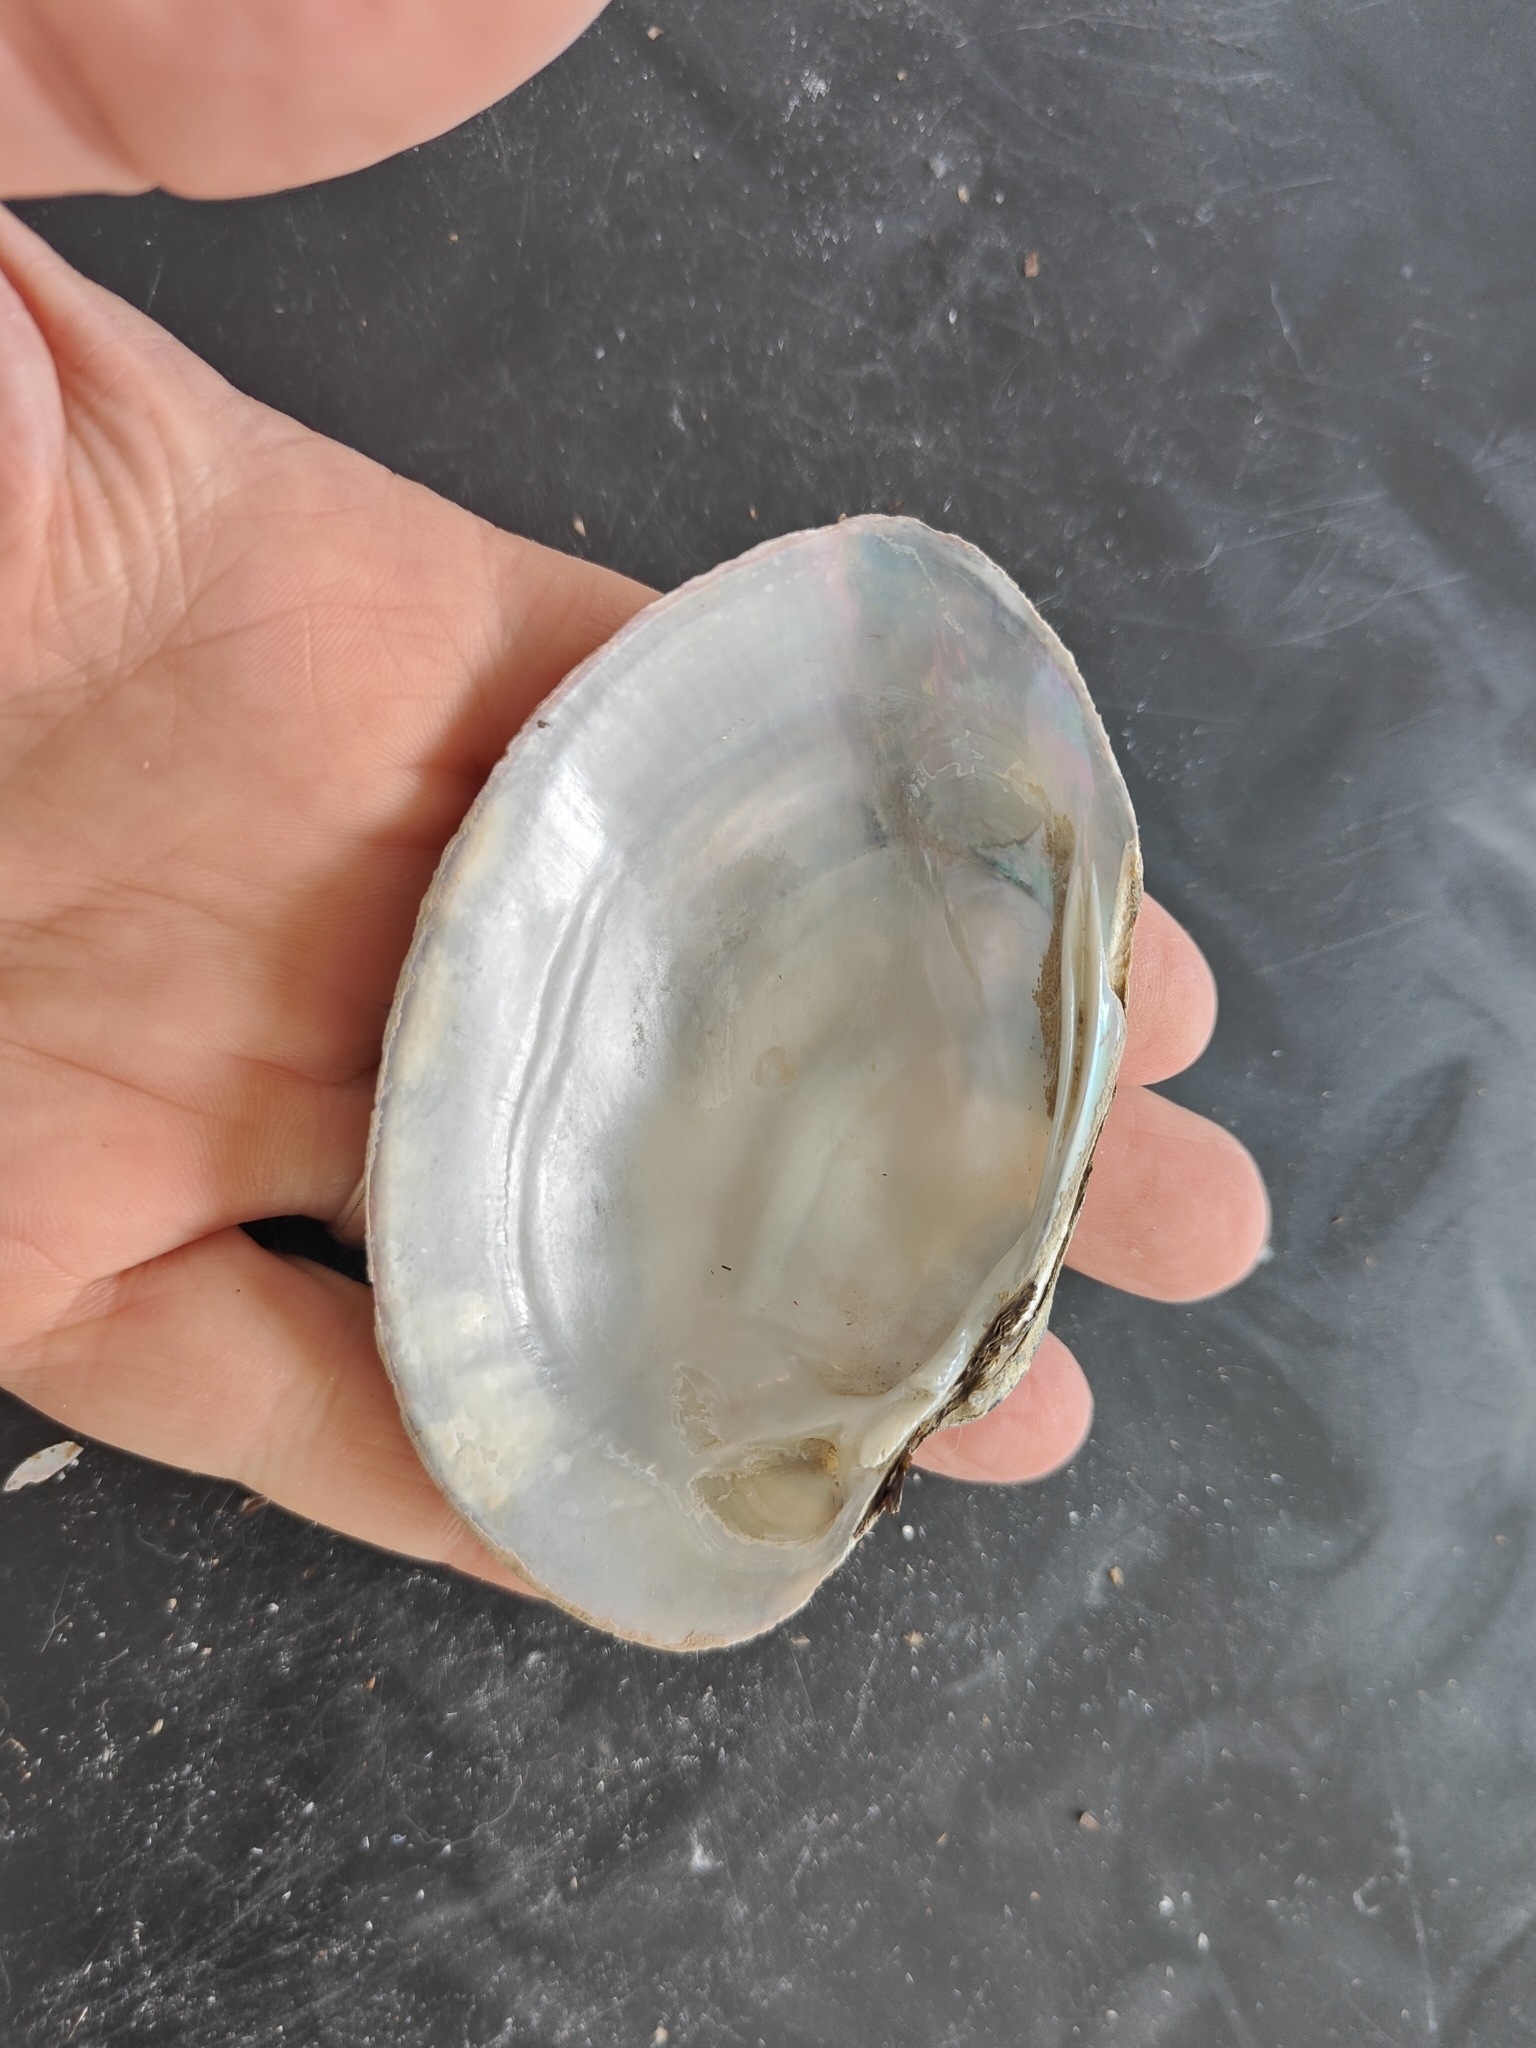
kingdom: Animalia
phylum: Mollusca
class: Bivalvia
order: Unionida
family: Unionidae
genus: Lampsilis
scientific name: Lampsilis cardium
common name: Plain pocketbook
